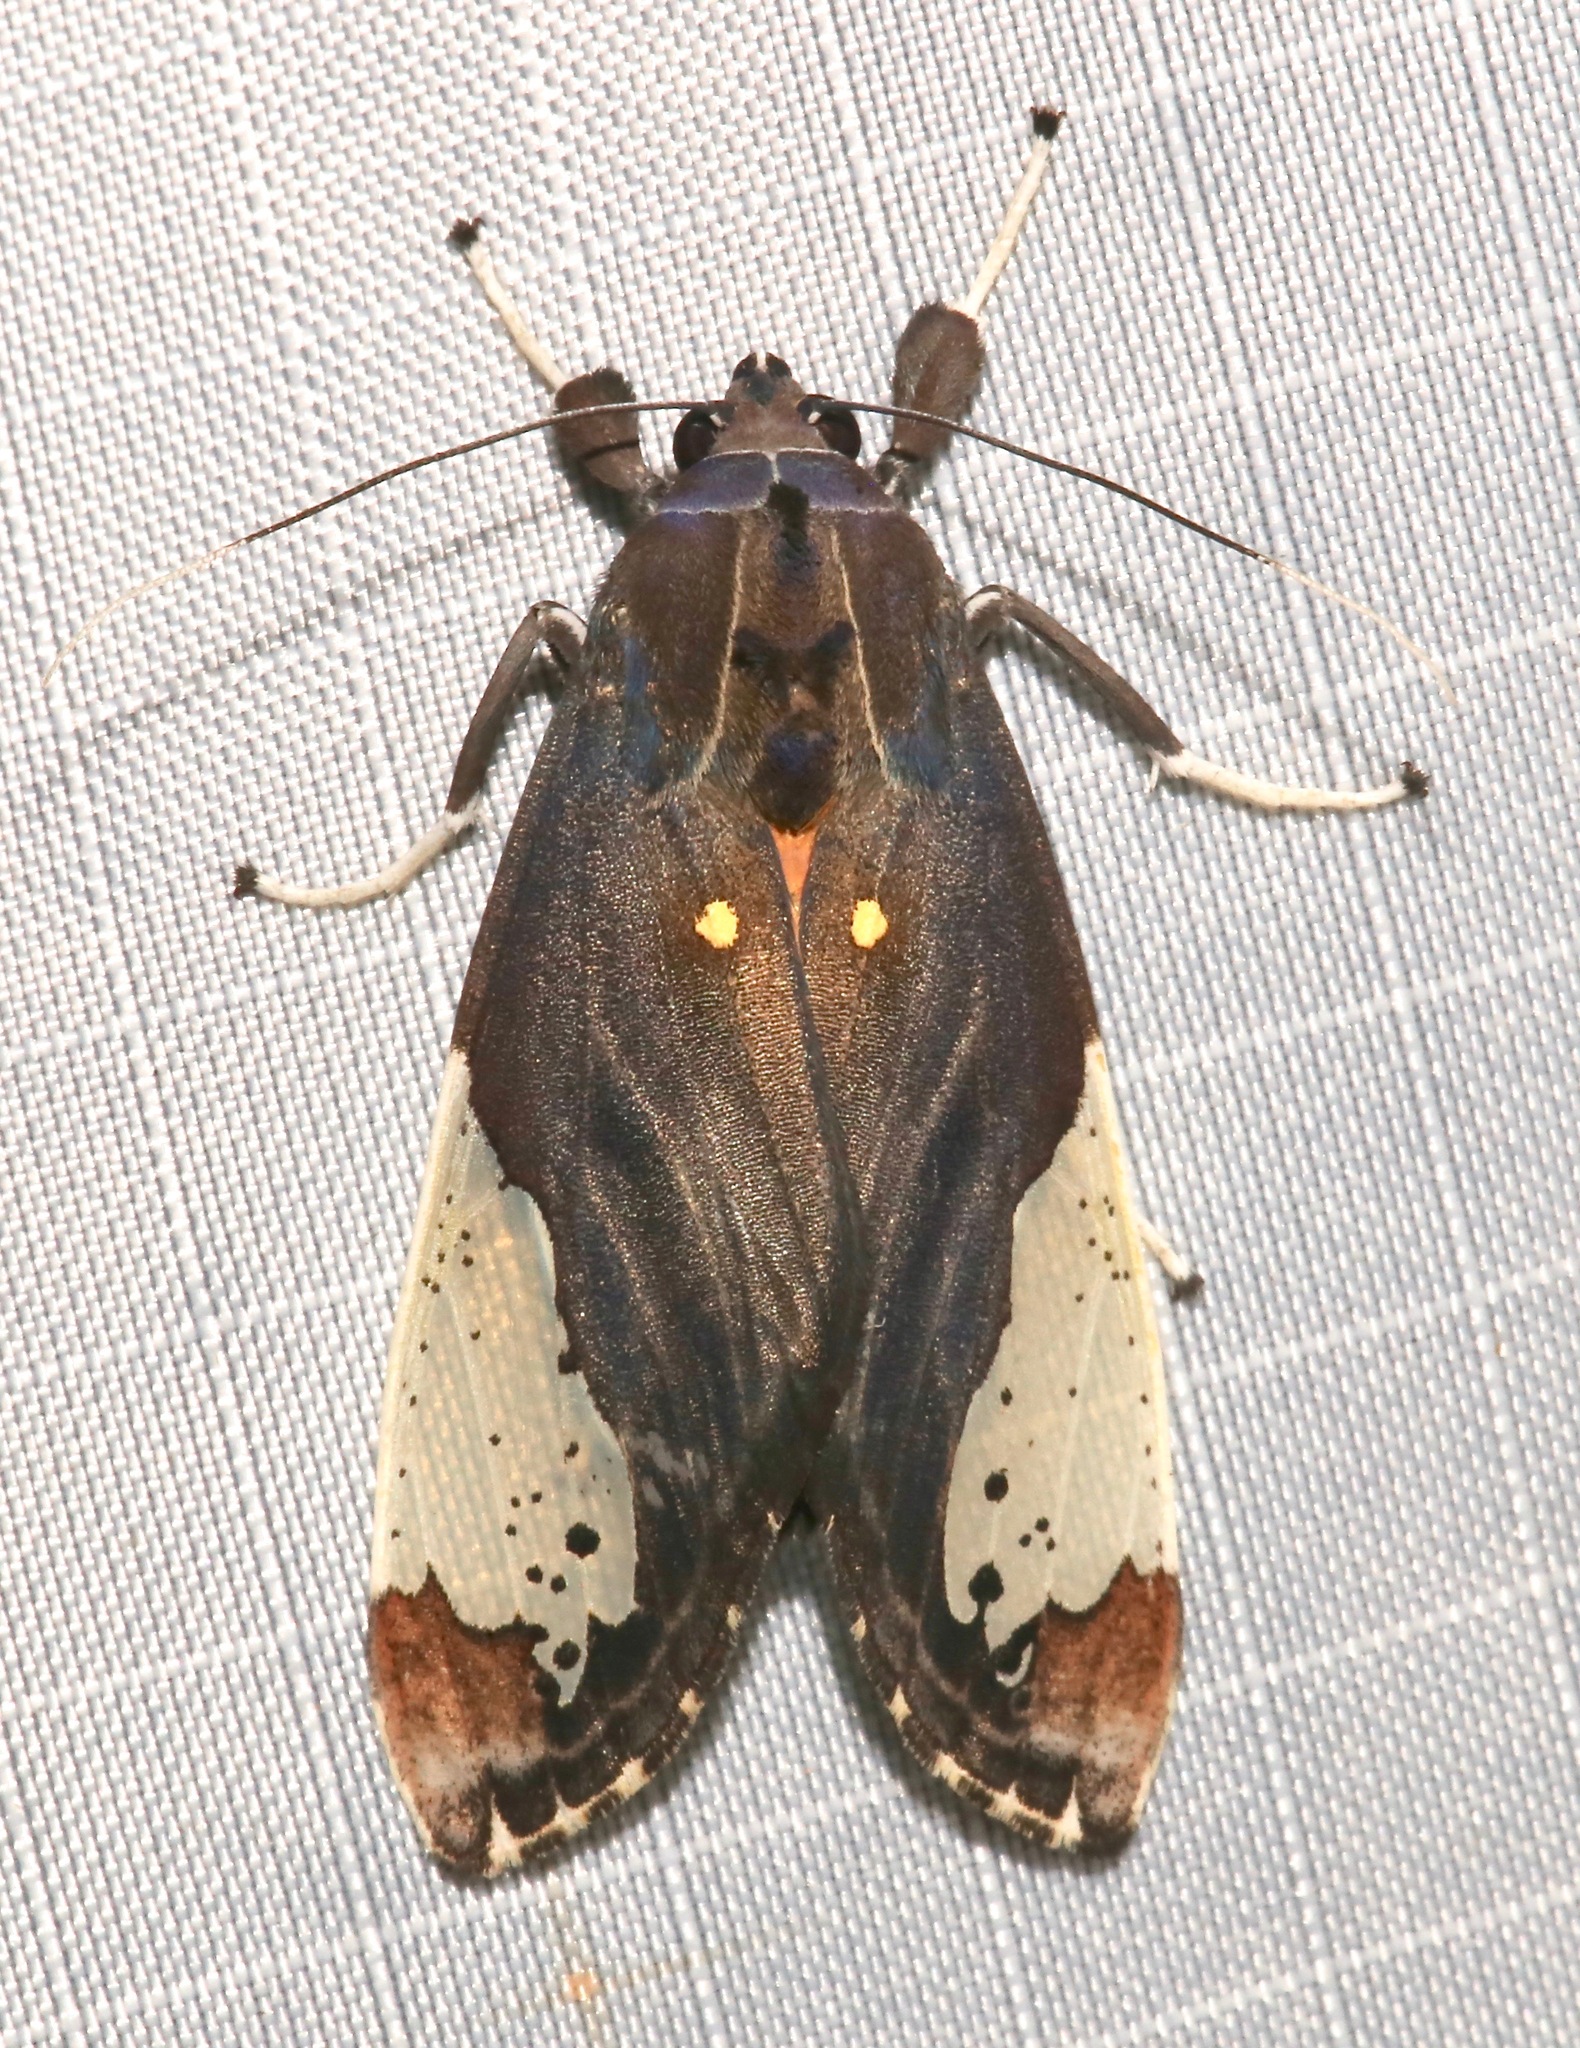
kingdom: Animalia
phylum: Arthropoda
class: Insecta
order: Lepidoptera
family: Erebidae
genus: Bertholdia
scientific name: Bertholdia flavidorsata
